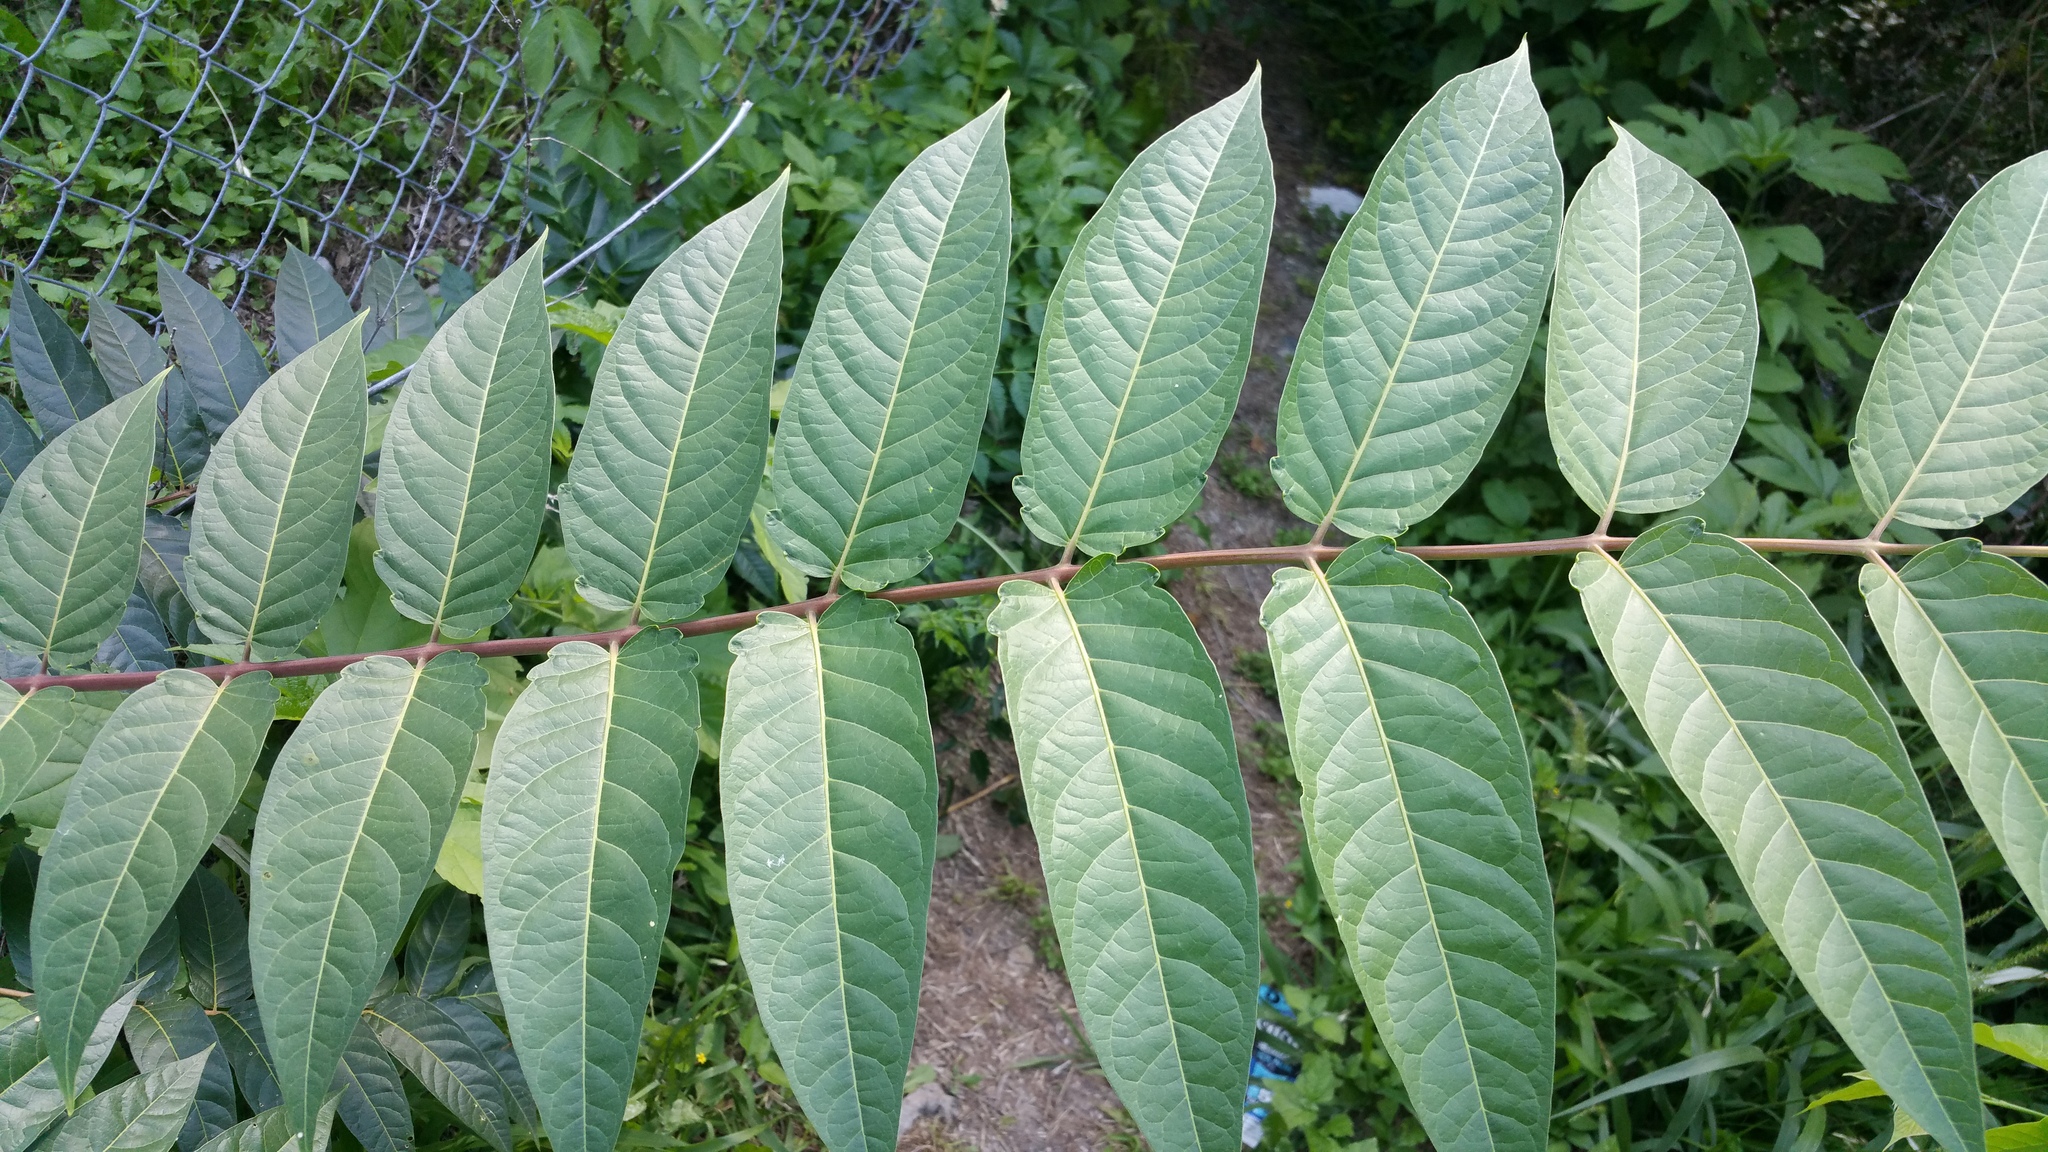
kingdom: Plantae
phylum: Tracheophyta
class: Magnoliopsida
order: Sapindales
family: Simaroubaceae
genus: Ailanthus
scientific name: Ailanthus altissima
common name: Tree-of-heaven
